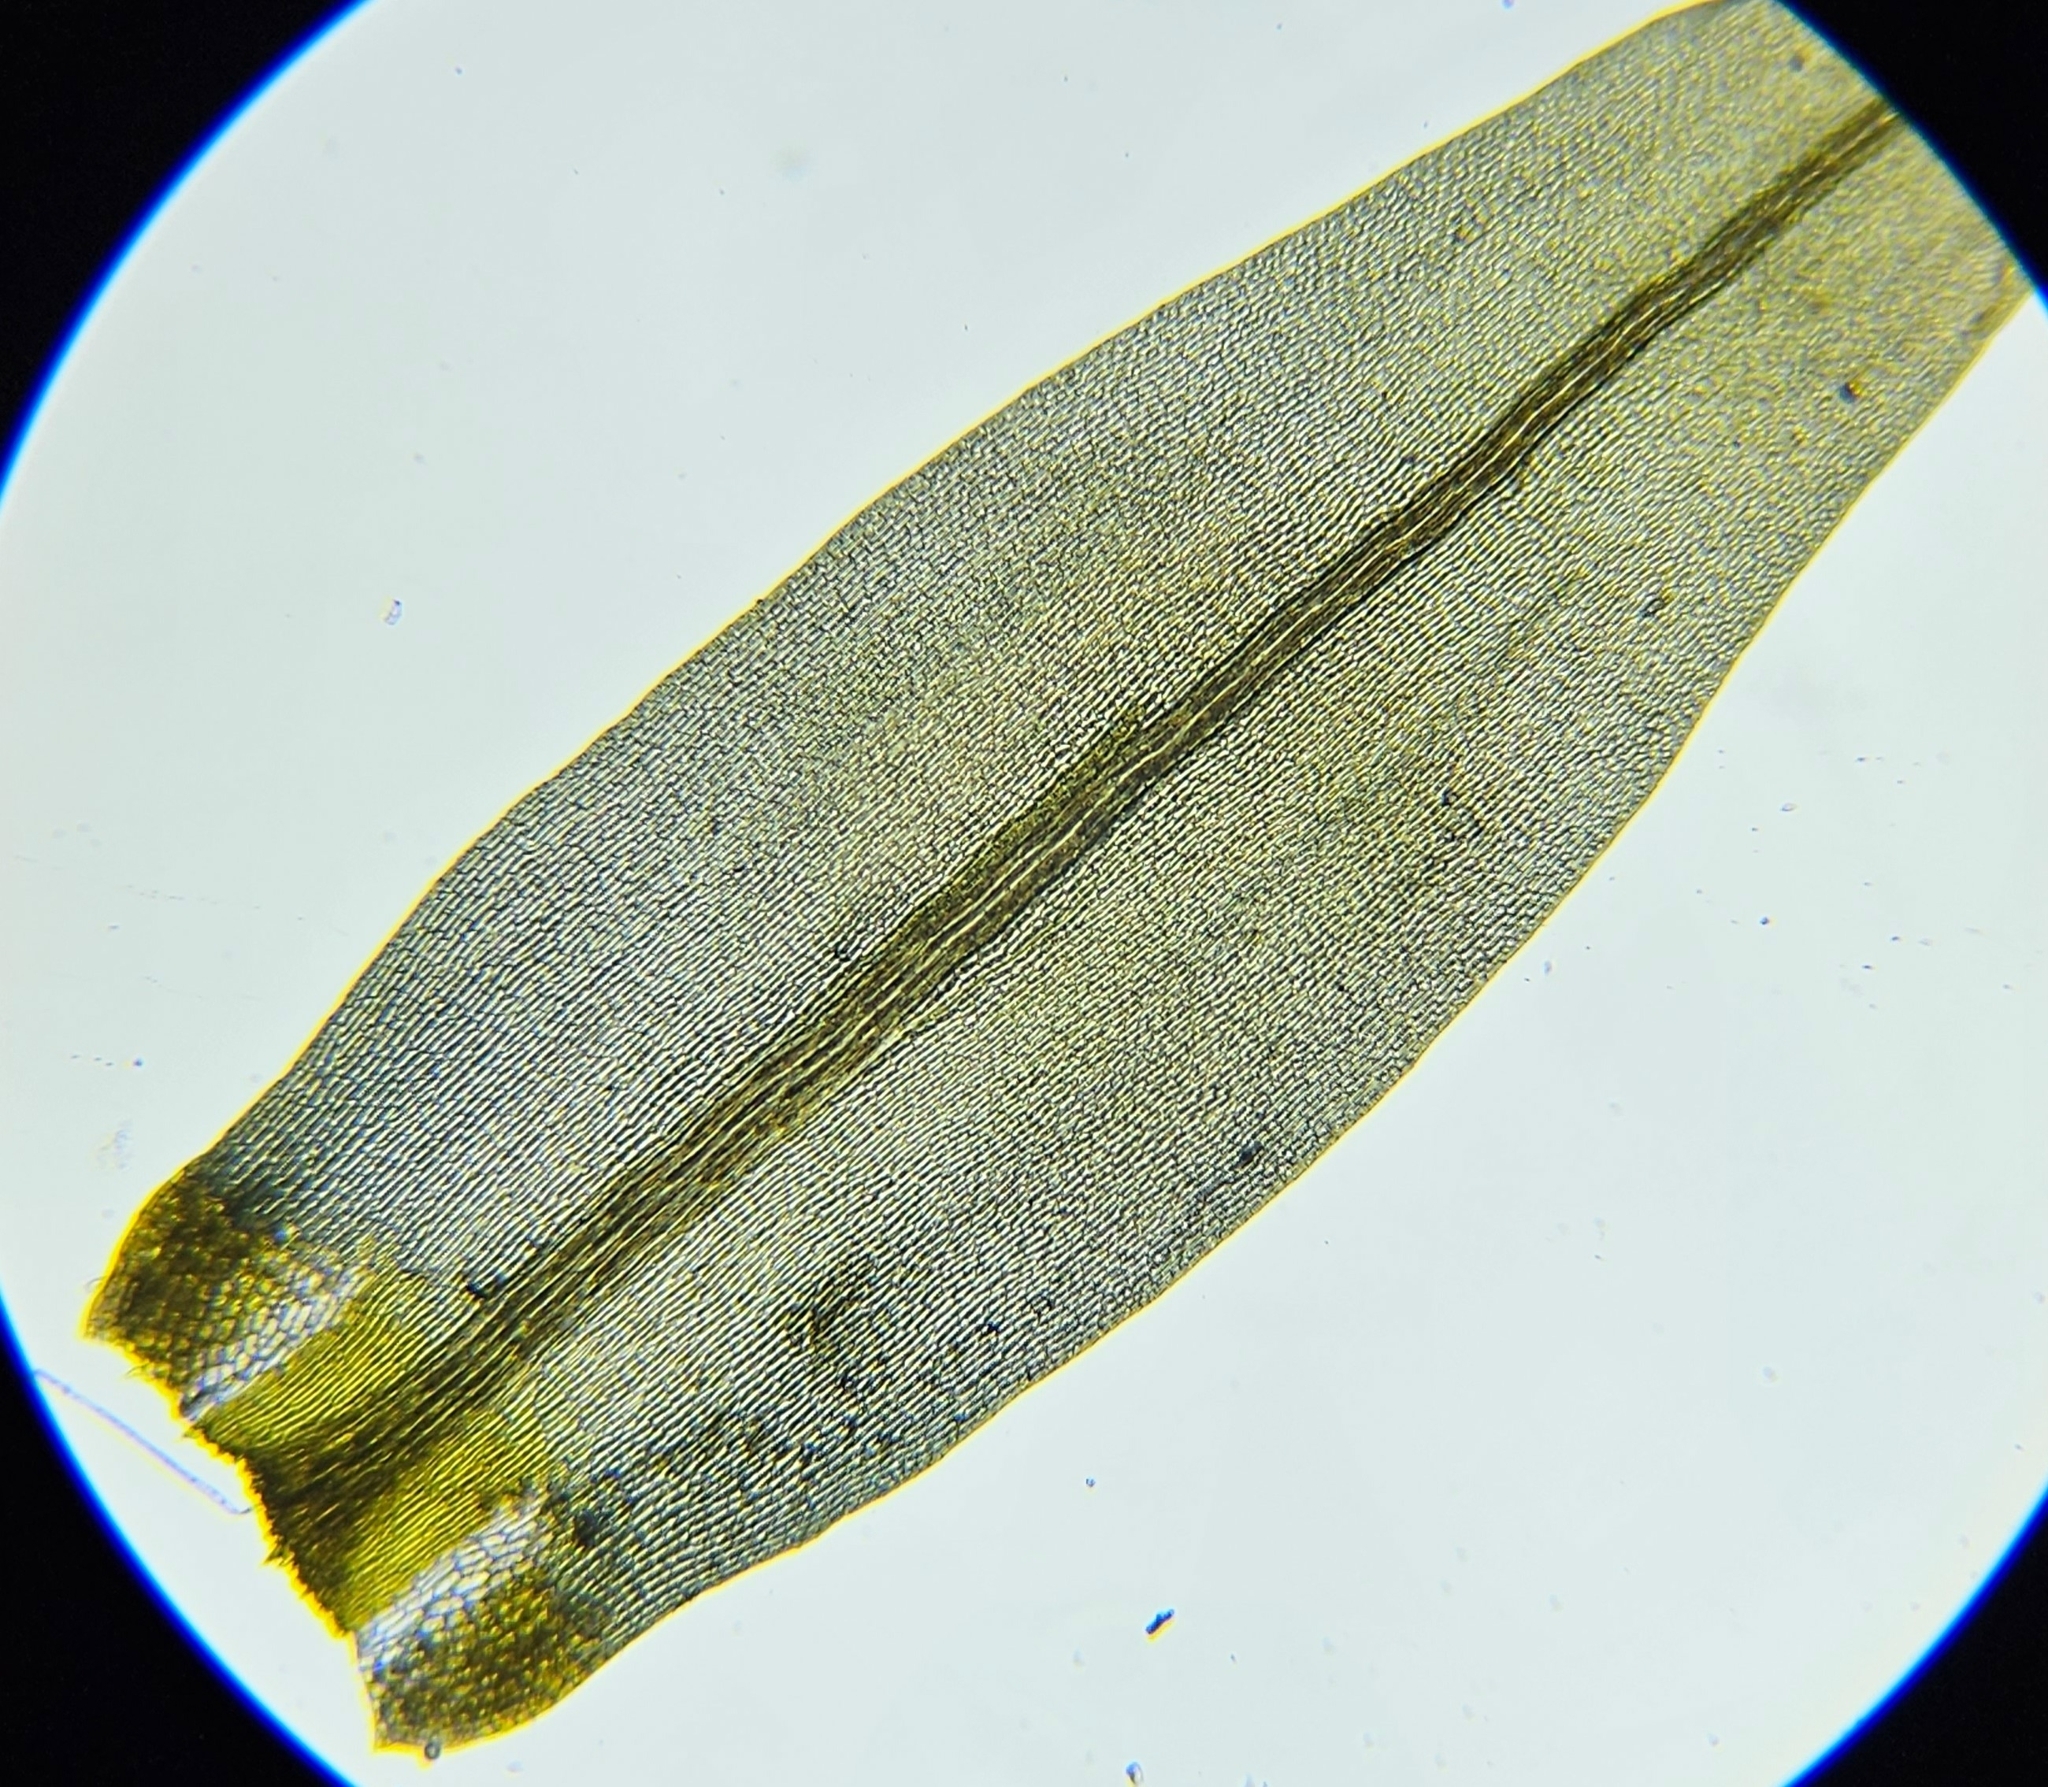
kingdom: Plantae
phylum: Bryophyta
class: Bryopsida
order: Dicranales
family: Dicranaceae
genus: Dicranum
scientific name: Dicranum scoparium
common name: Broom fork-moss
